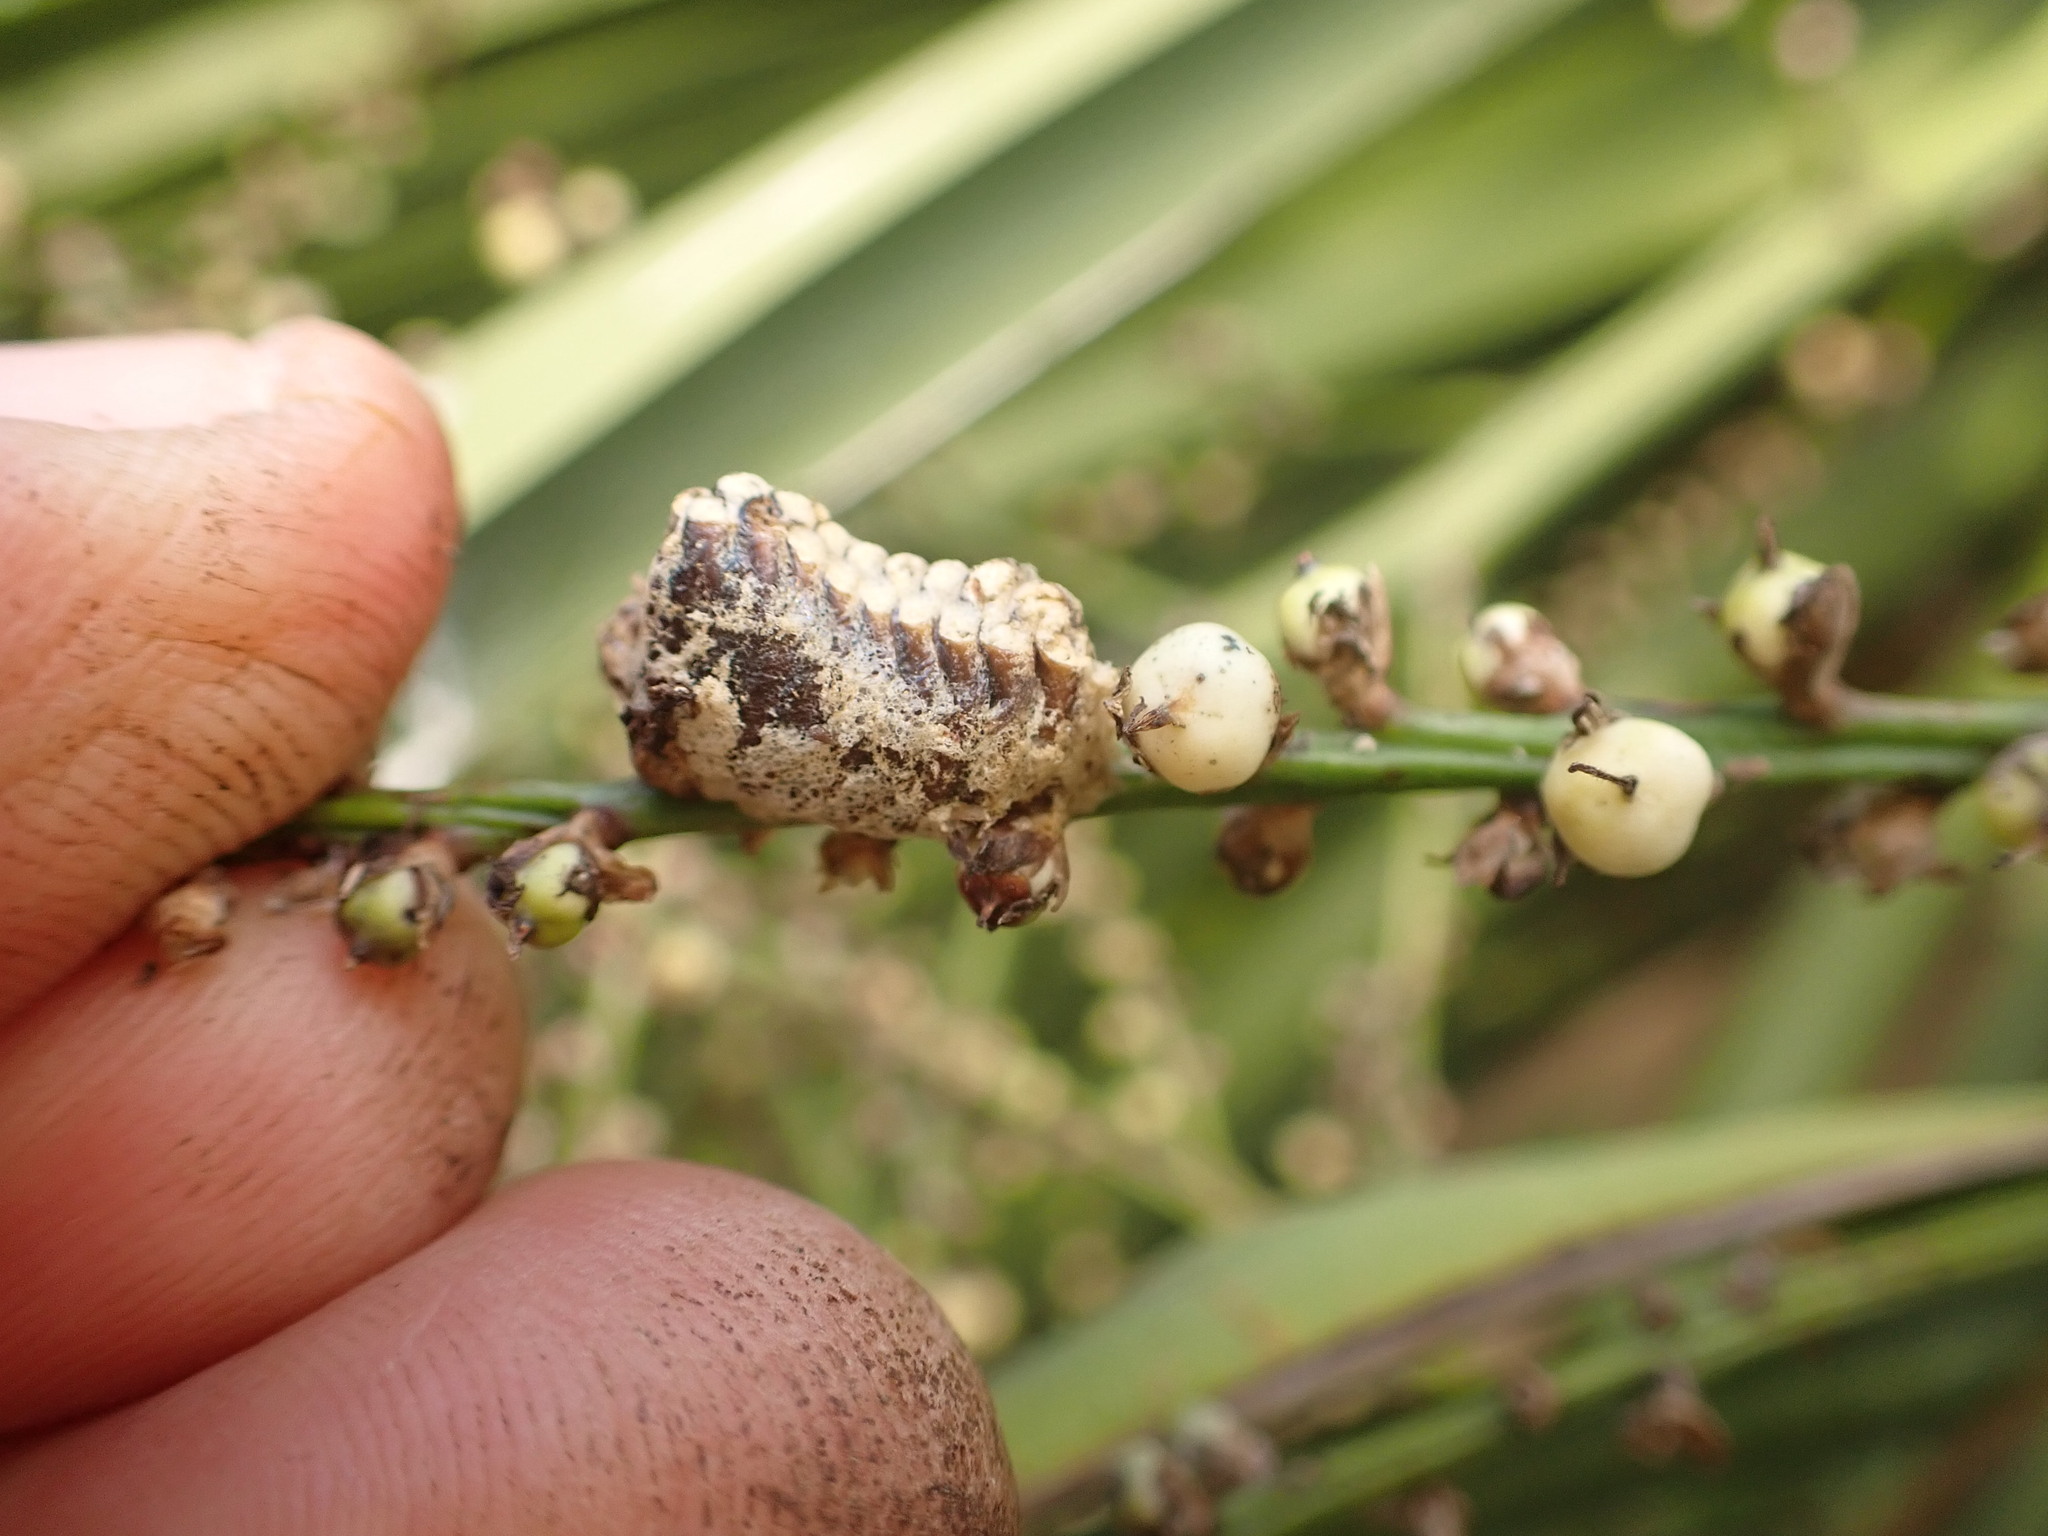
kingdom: Animalia
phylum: Arthropoda
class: Insecta
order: Mantodea
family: Mantidae
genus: Orthodera
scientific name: Orthodera novaezealandiae
